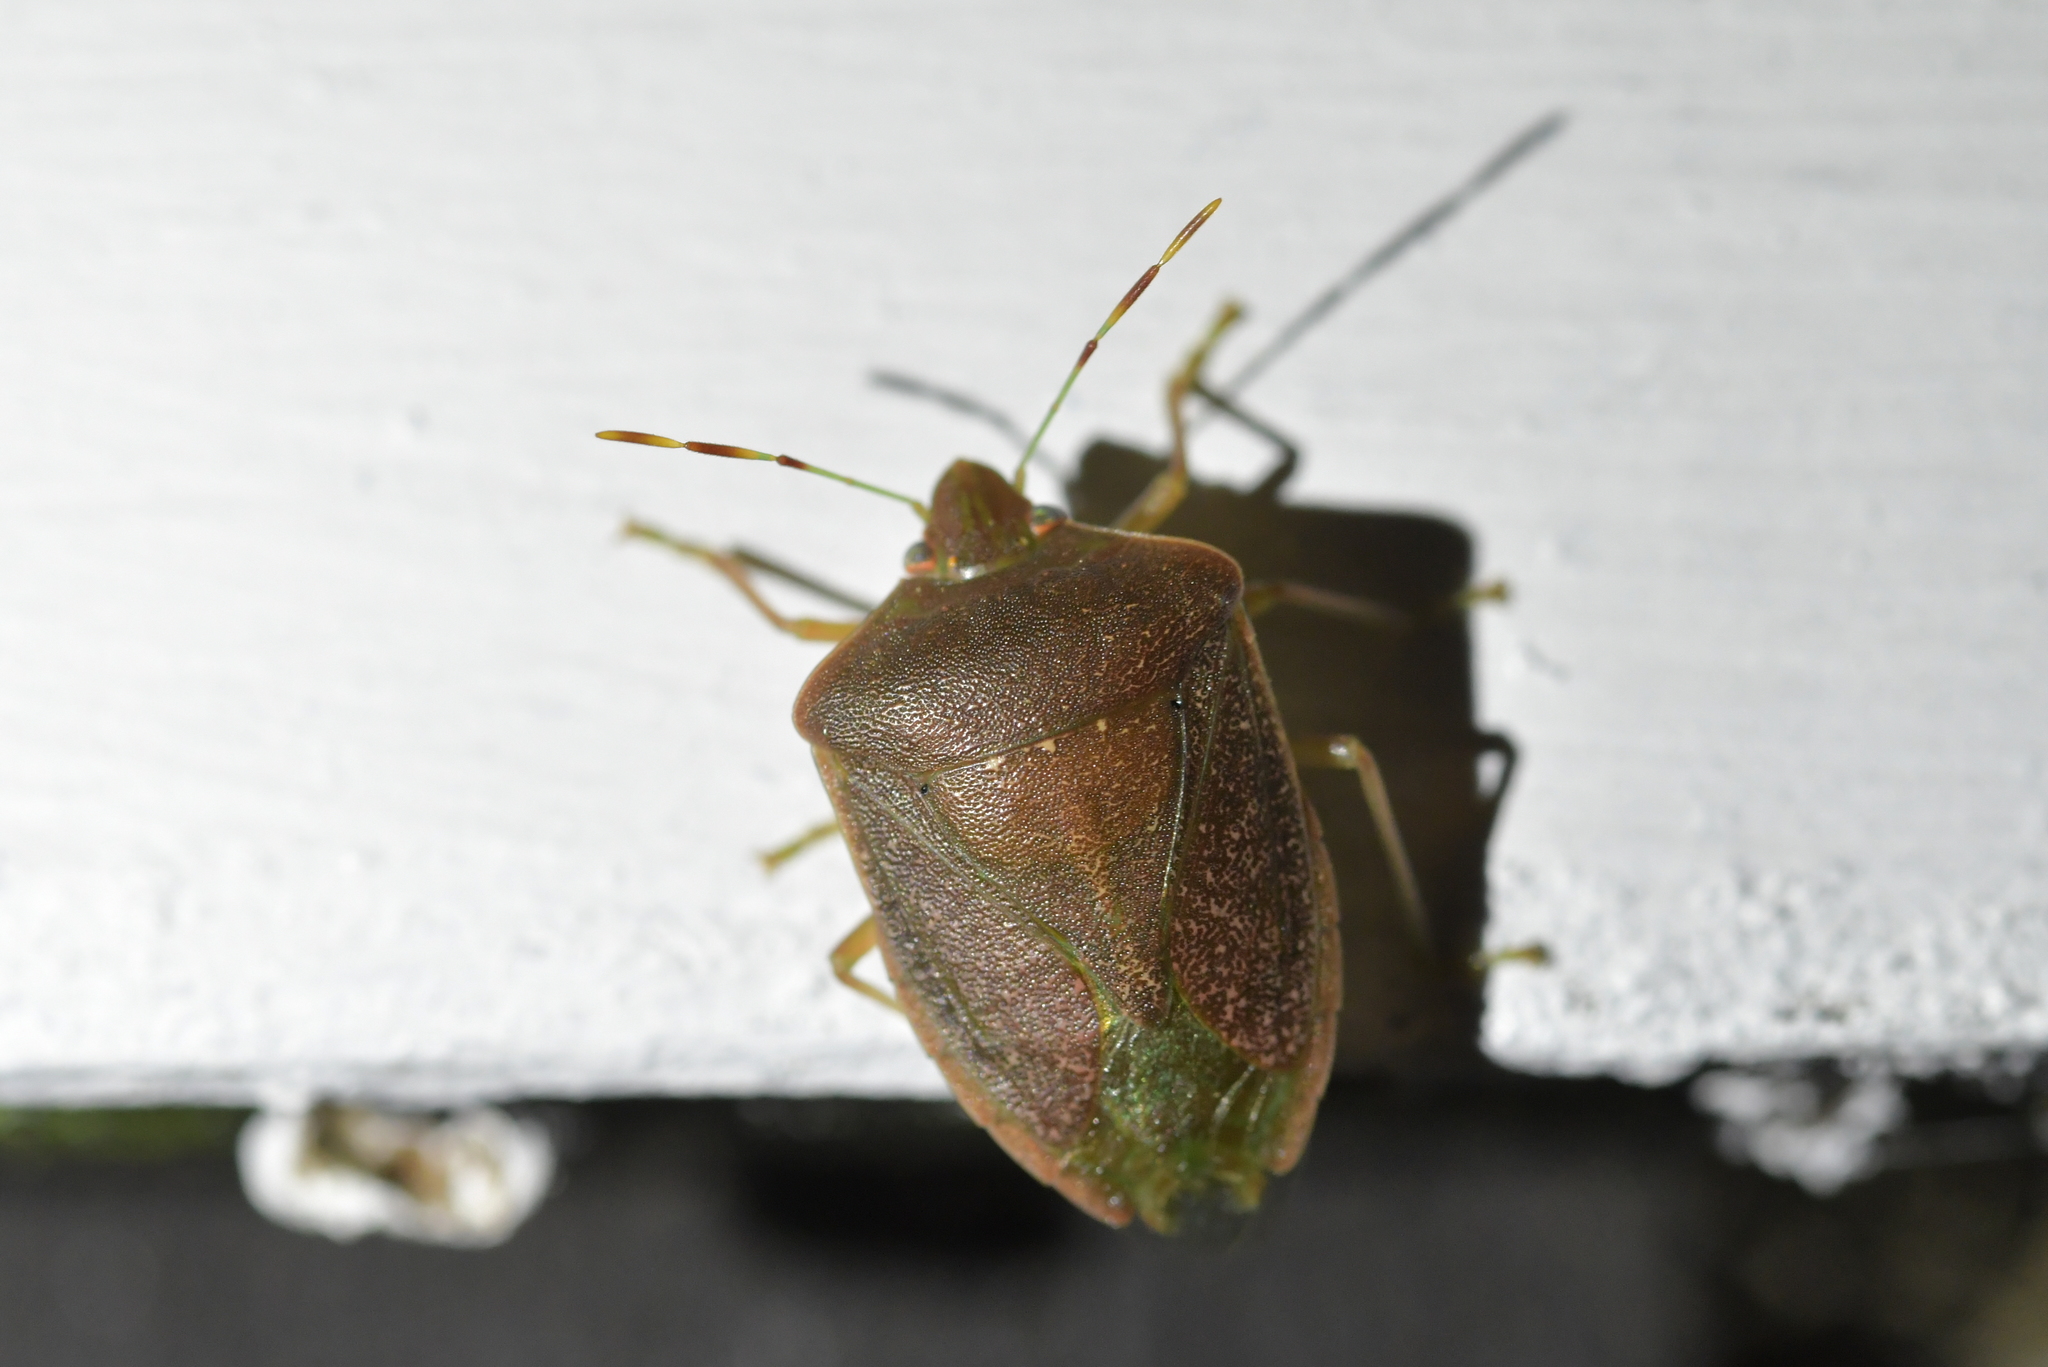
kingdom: Animalia
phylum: Arthropoda
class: Insecta
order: Hemiptera
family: Pentatomidae
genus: Nezara
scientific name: Nezara viridula
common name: Southern green stink bug
